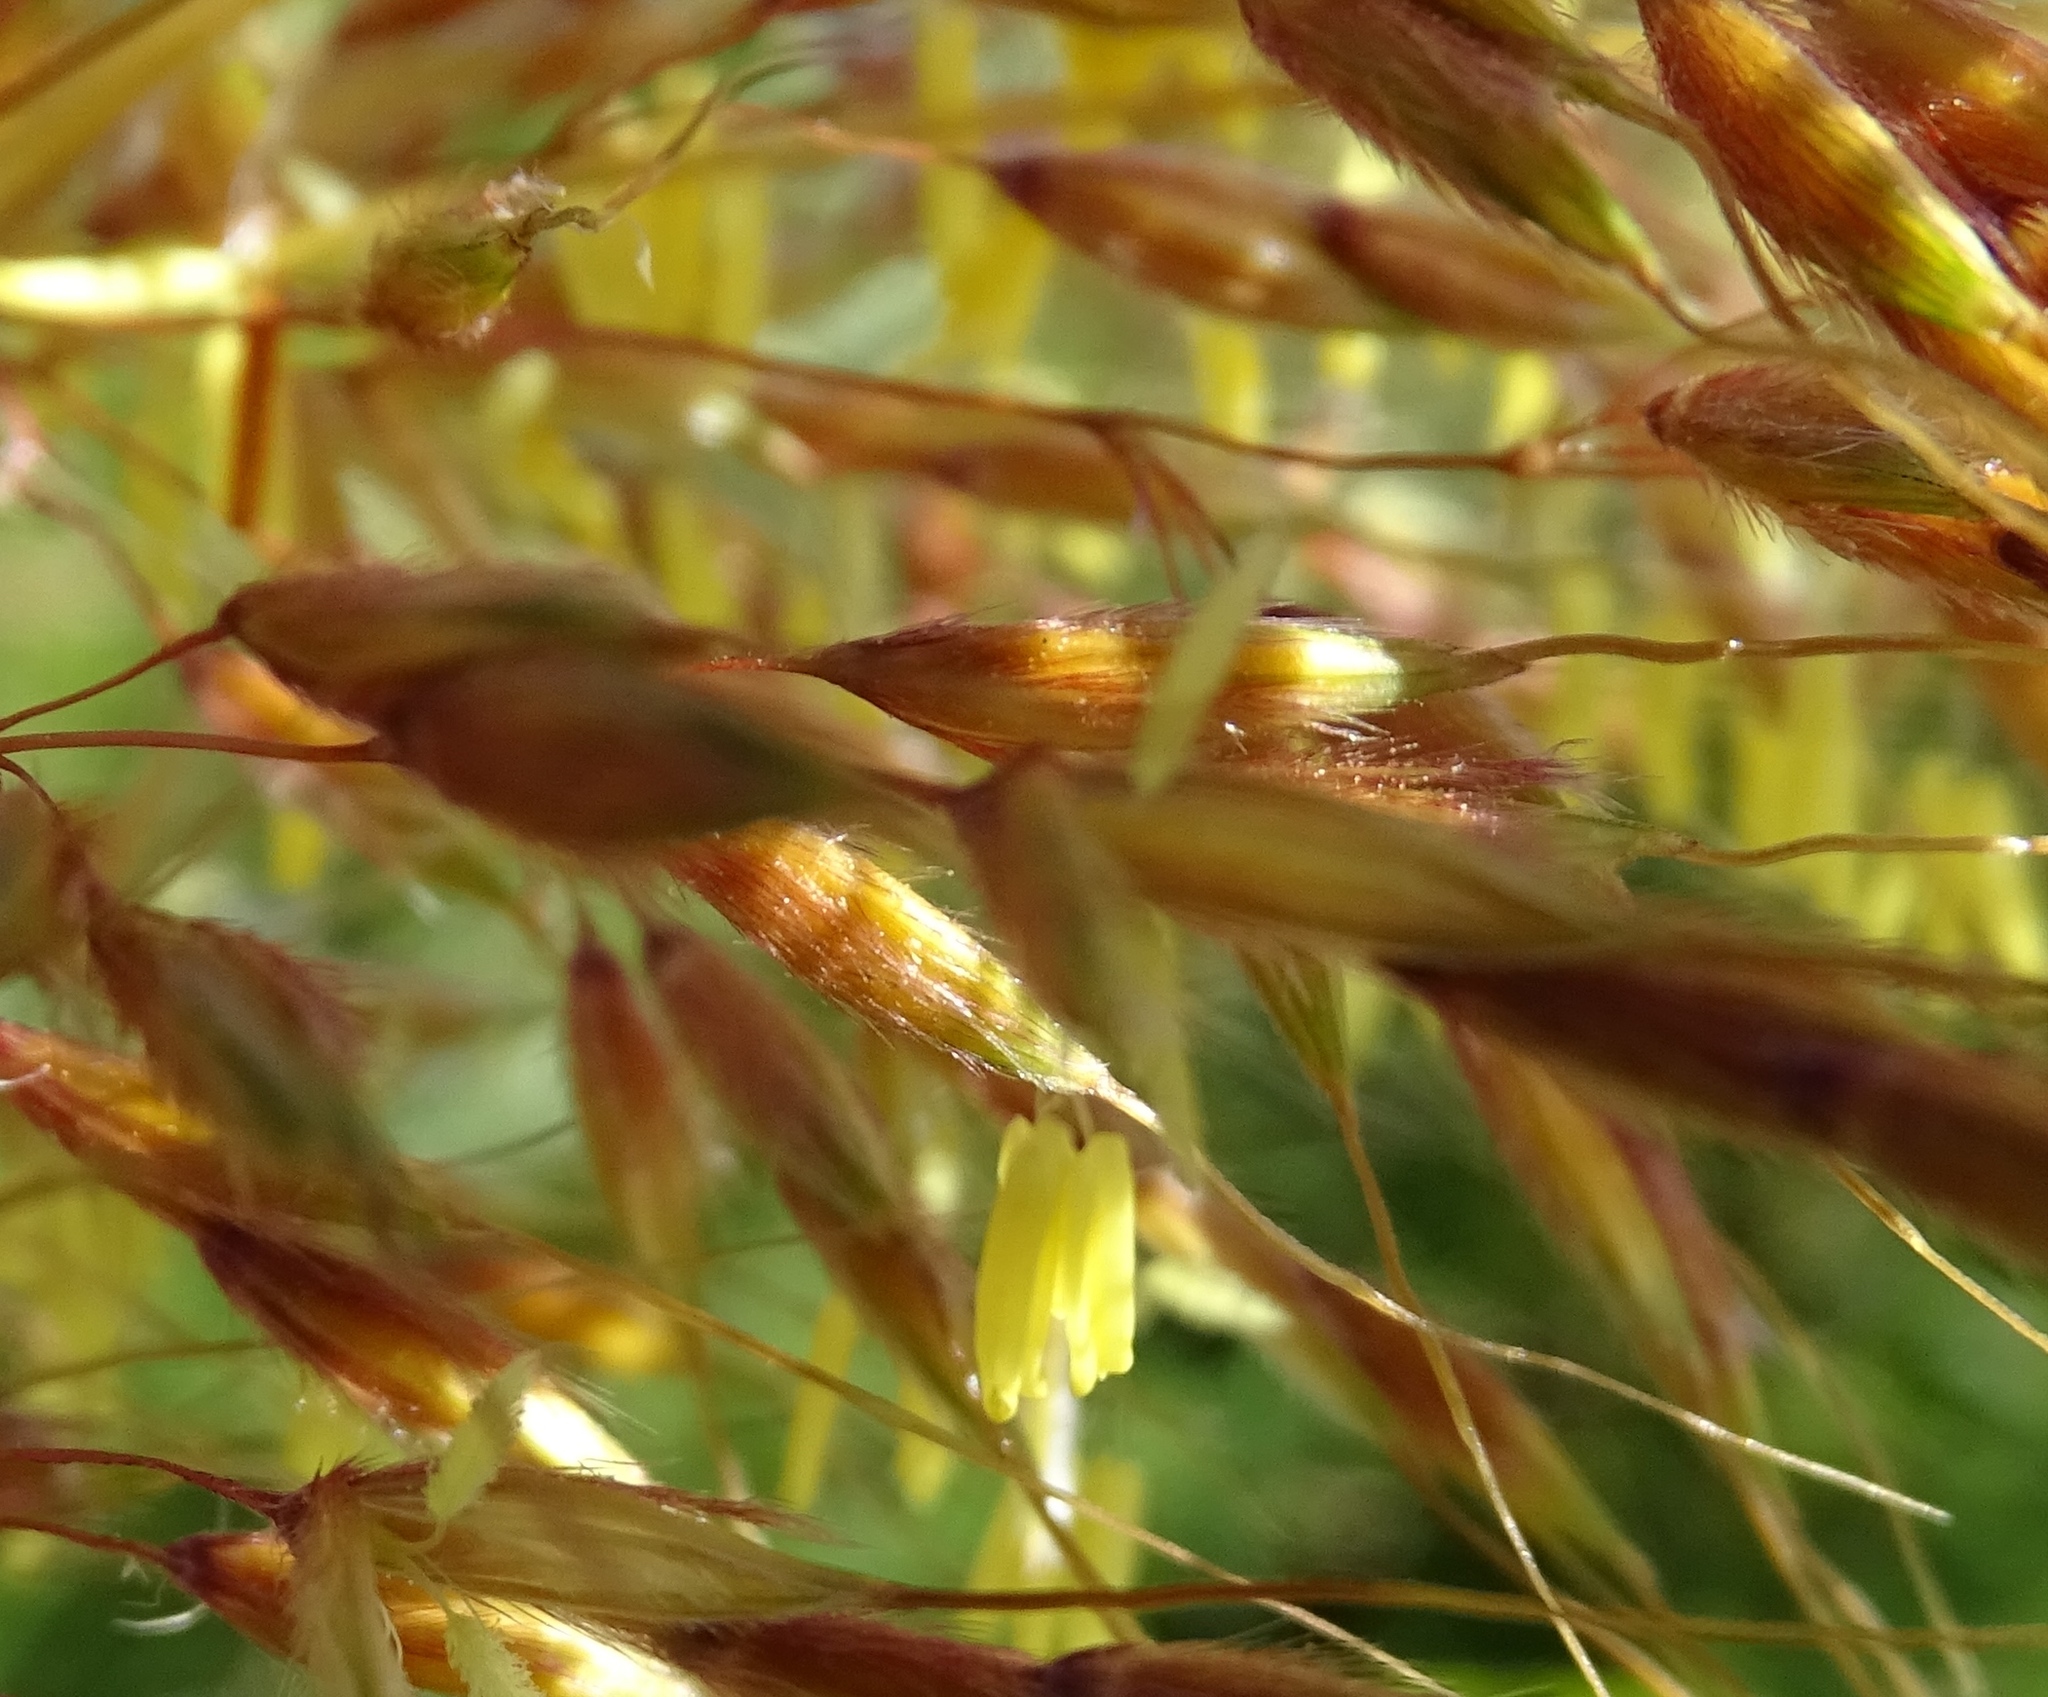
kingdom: Plantae
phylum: Tracheophyta
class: Liliopsida
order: Poales
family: Poaceae
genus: Sorghastrum
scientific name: Sorghastrum nutans
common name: Indian grass
